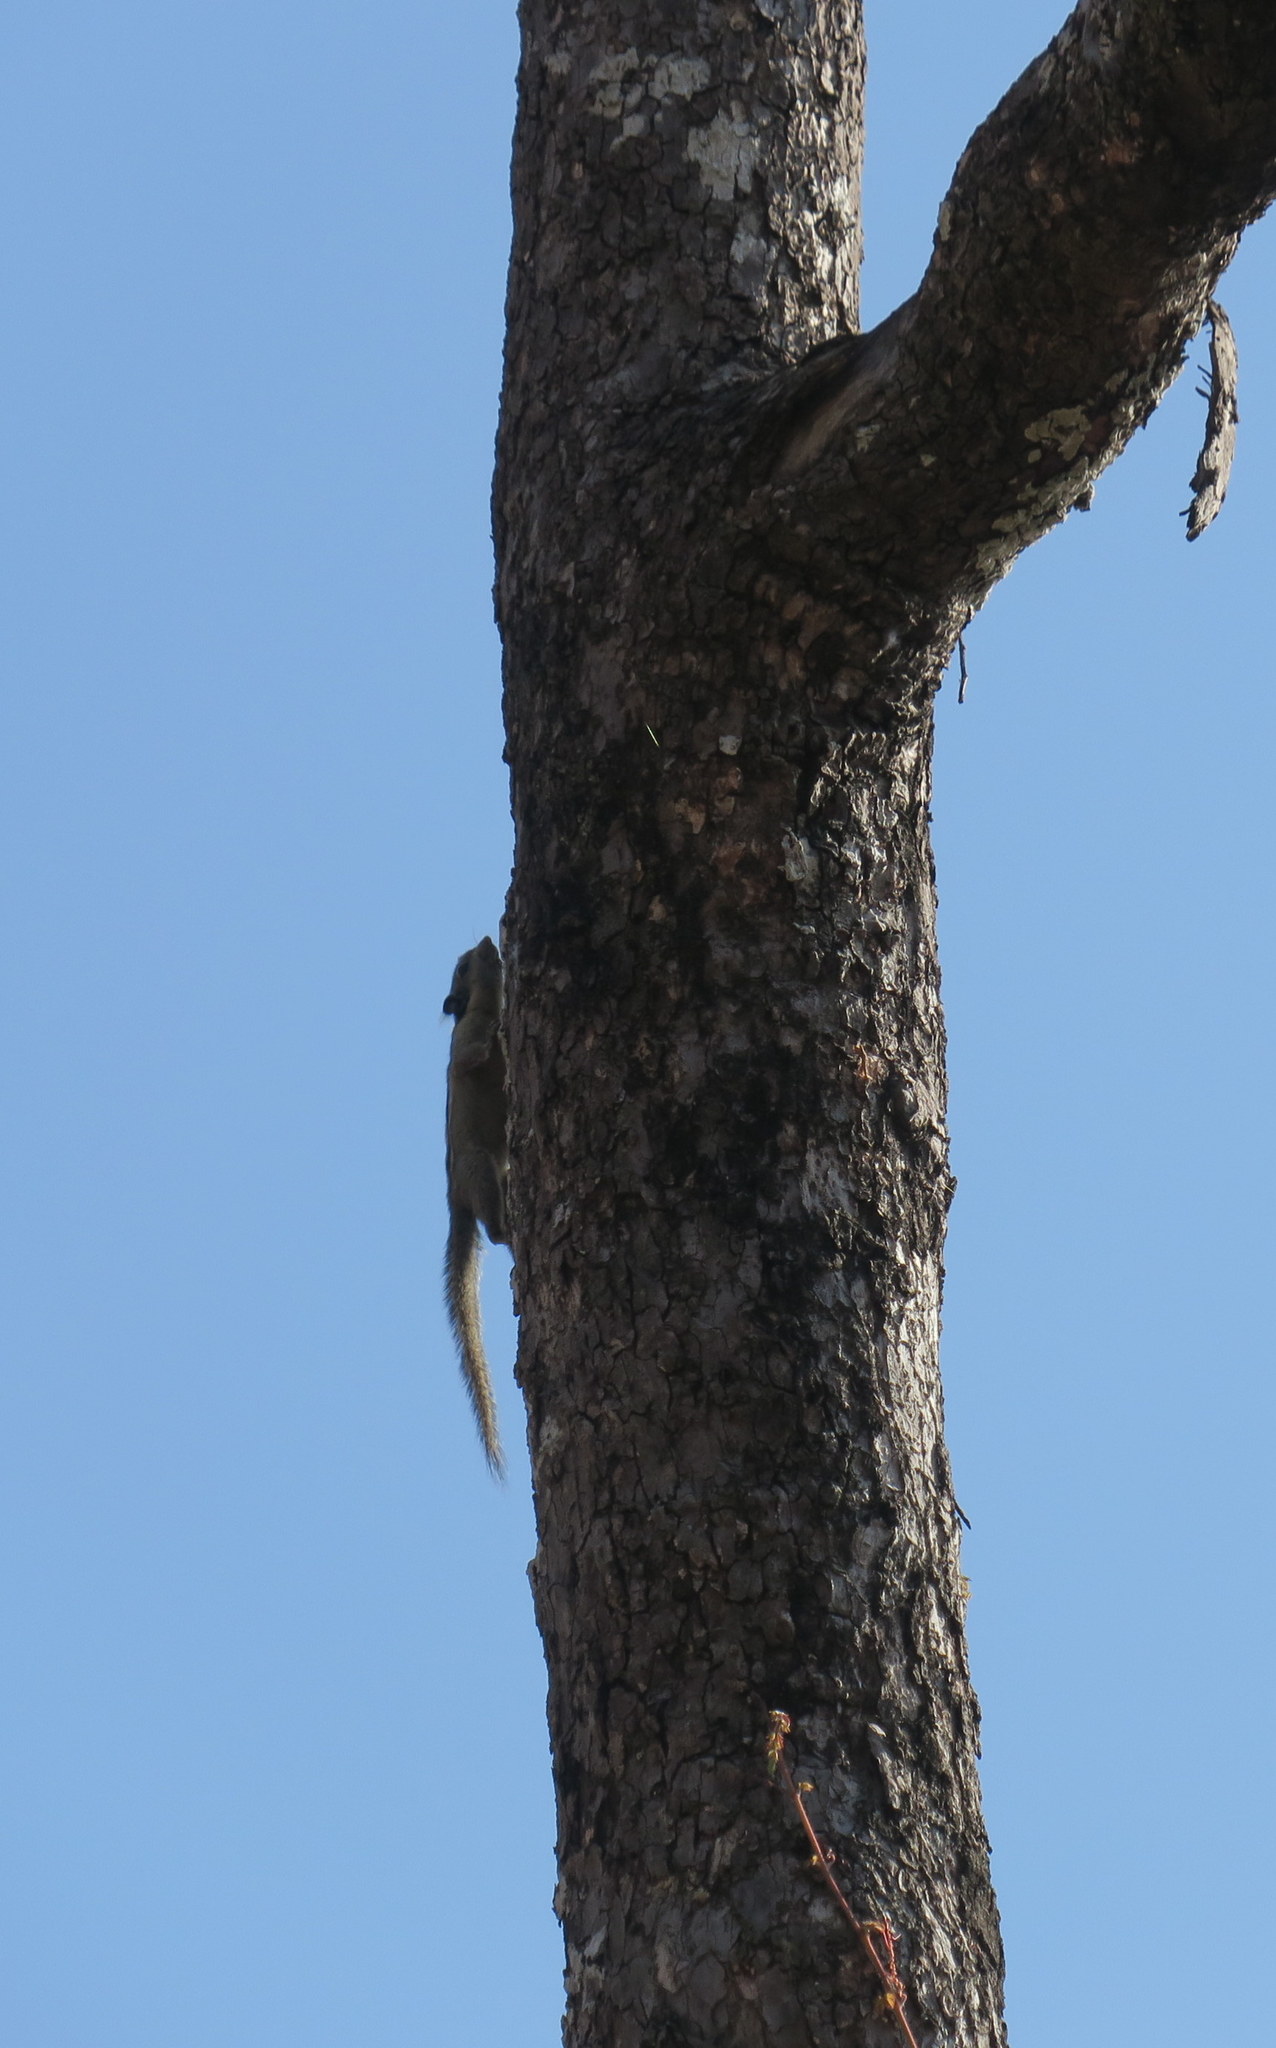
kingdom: Animalia
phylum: Chordata
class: Mammalia
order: Rodentia
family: Sciuridae
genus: Tamiops
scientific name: Tamiops rodolphii
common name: Cambodian striped squirrel
